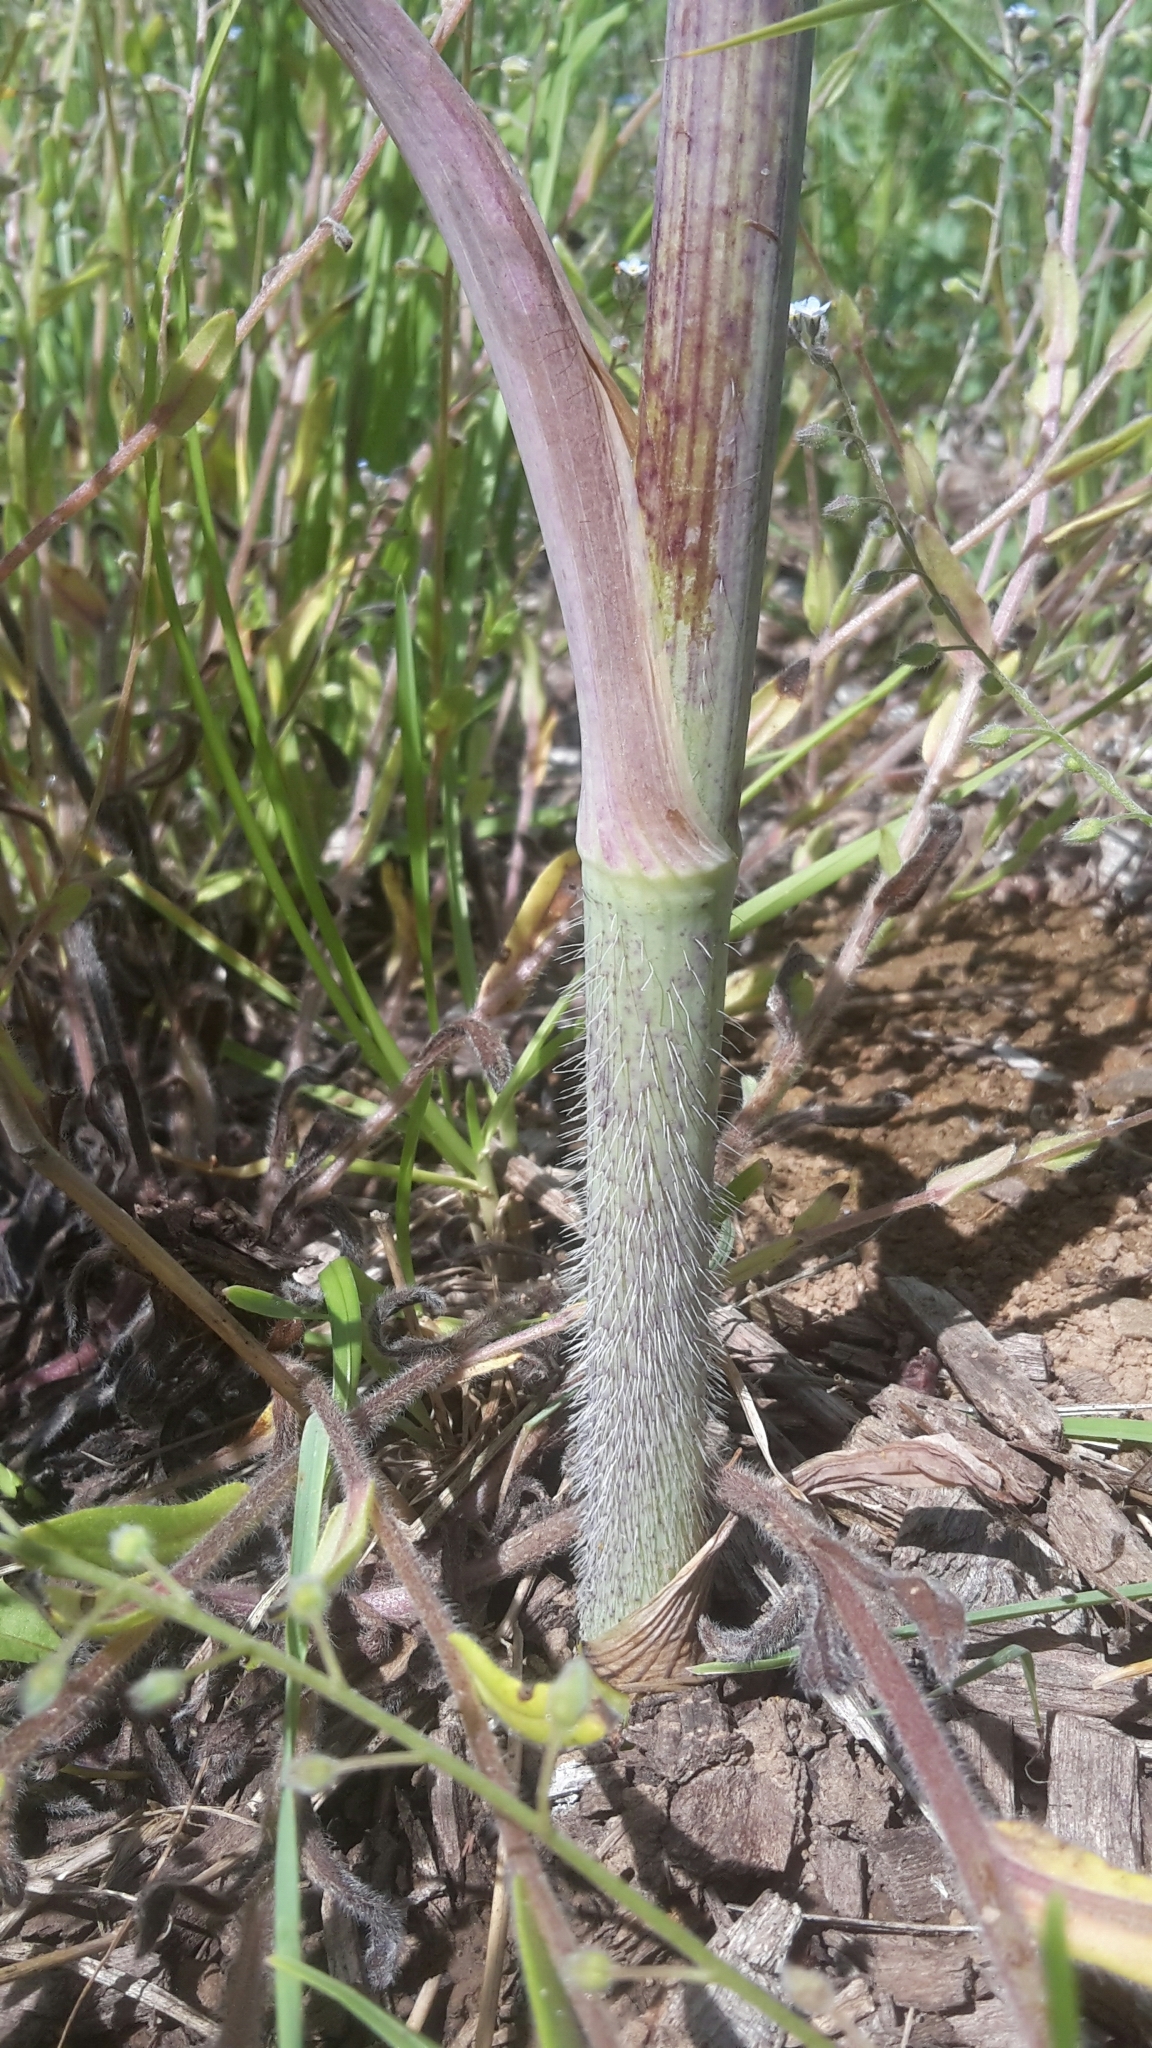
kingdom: Plantae
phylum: Tracheophyta
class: Magnoliopsida
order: Apiales
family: Apiaceae
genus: Chaerophyllum
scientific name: Chaerophyllum bulbosum
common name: Bulbous chervil
